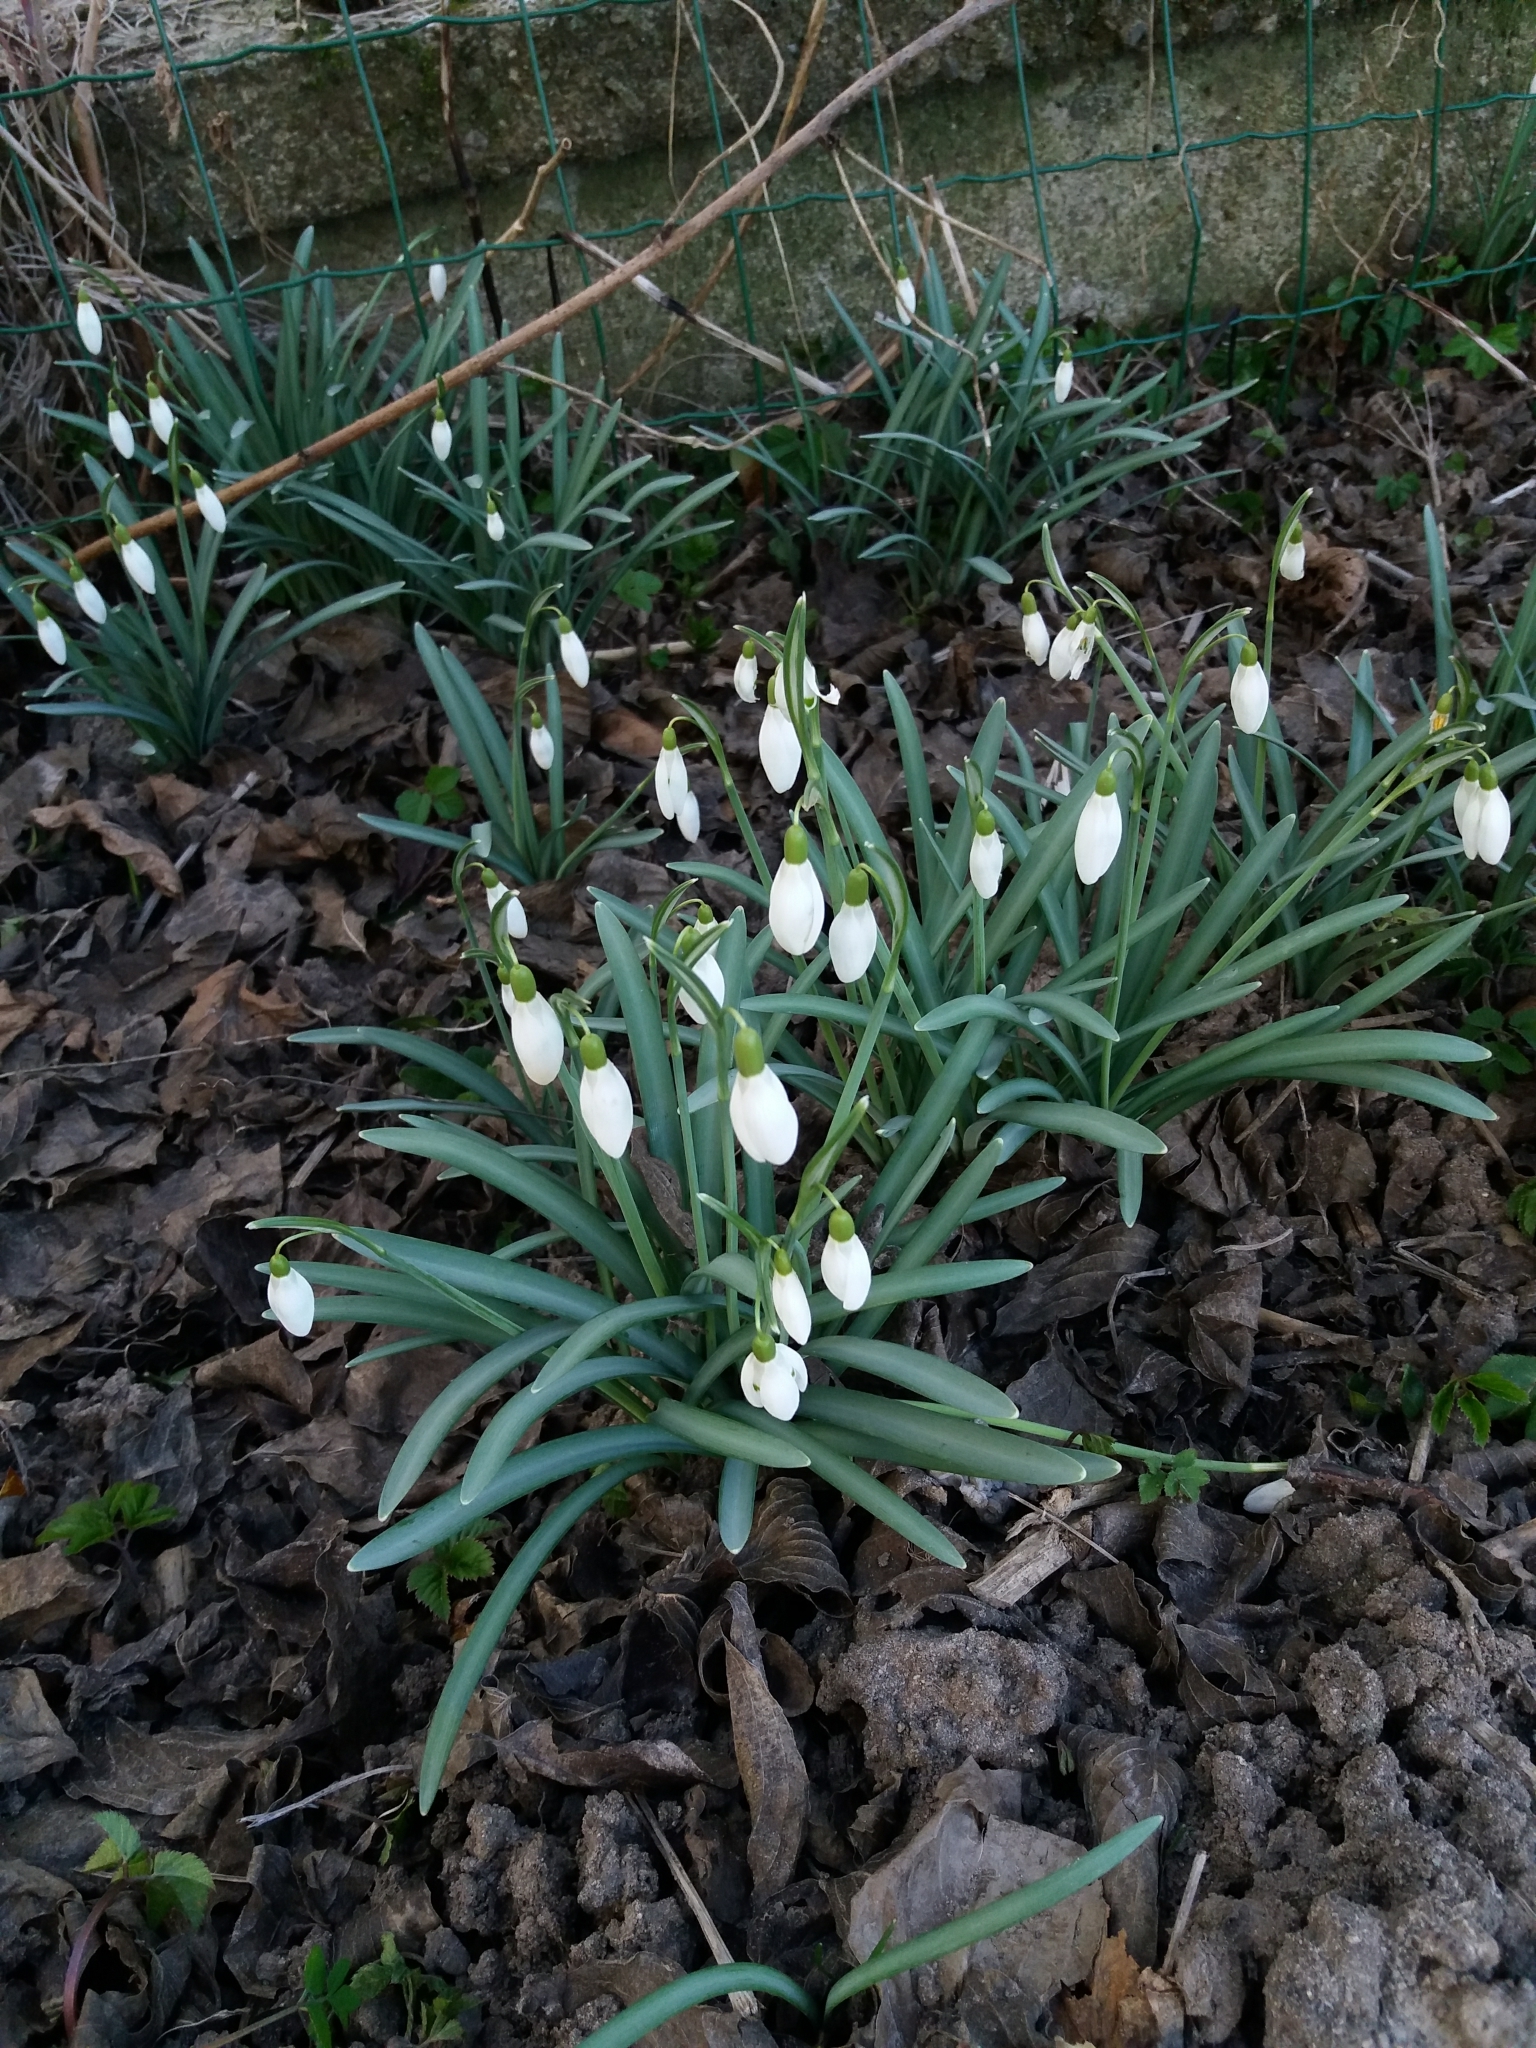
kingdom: Plantae
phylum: Tracheophyta
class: Liliopsida
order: Asparagales
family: Amaryllidaceae
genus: Galanthus
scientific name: Galanthus nivalis
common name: Snowdrop
